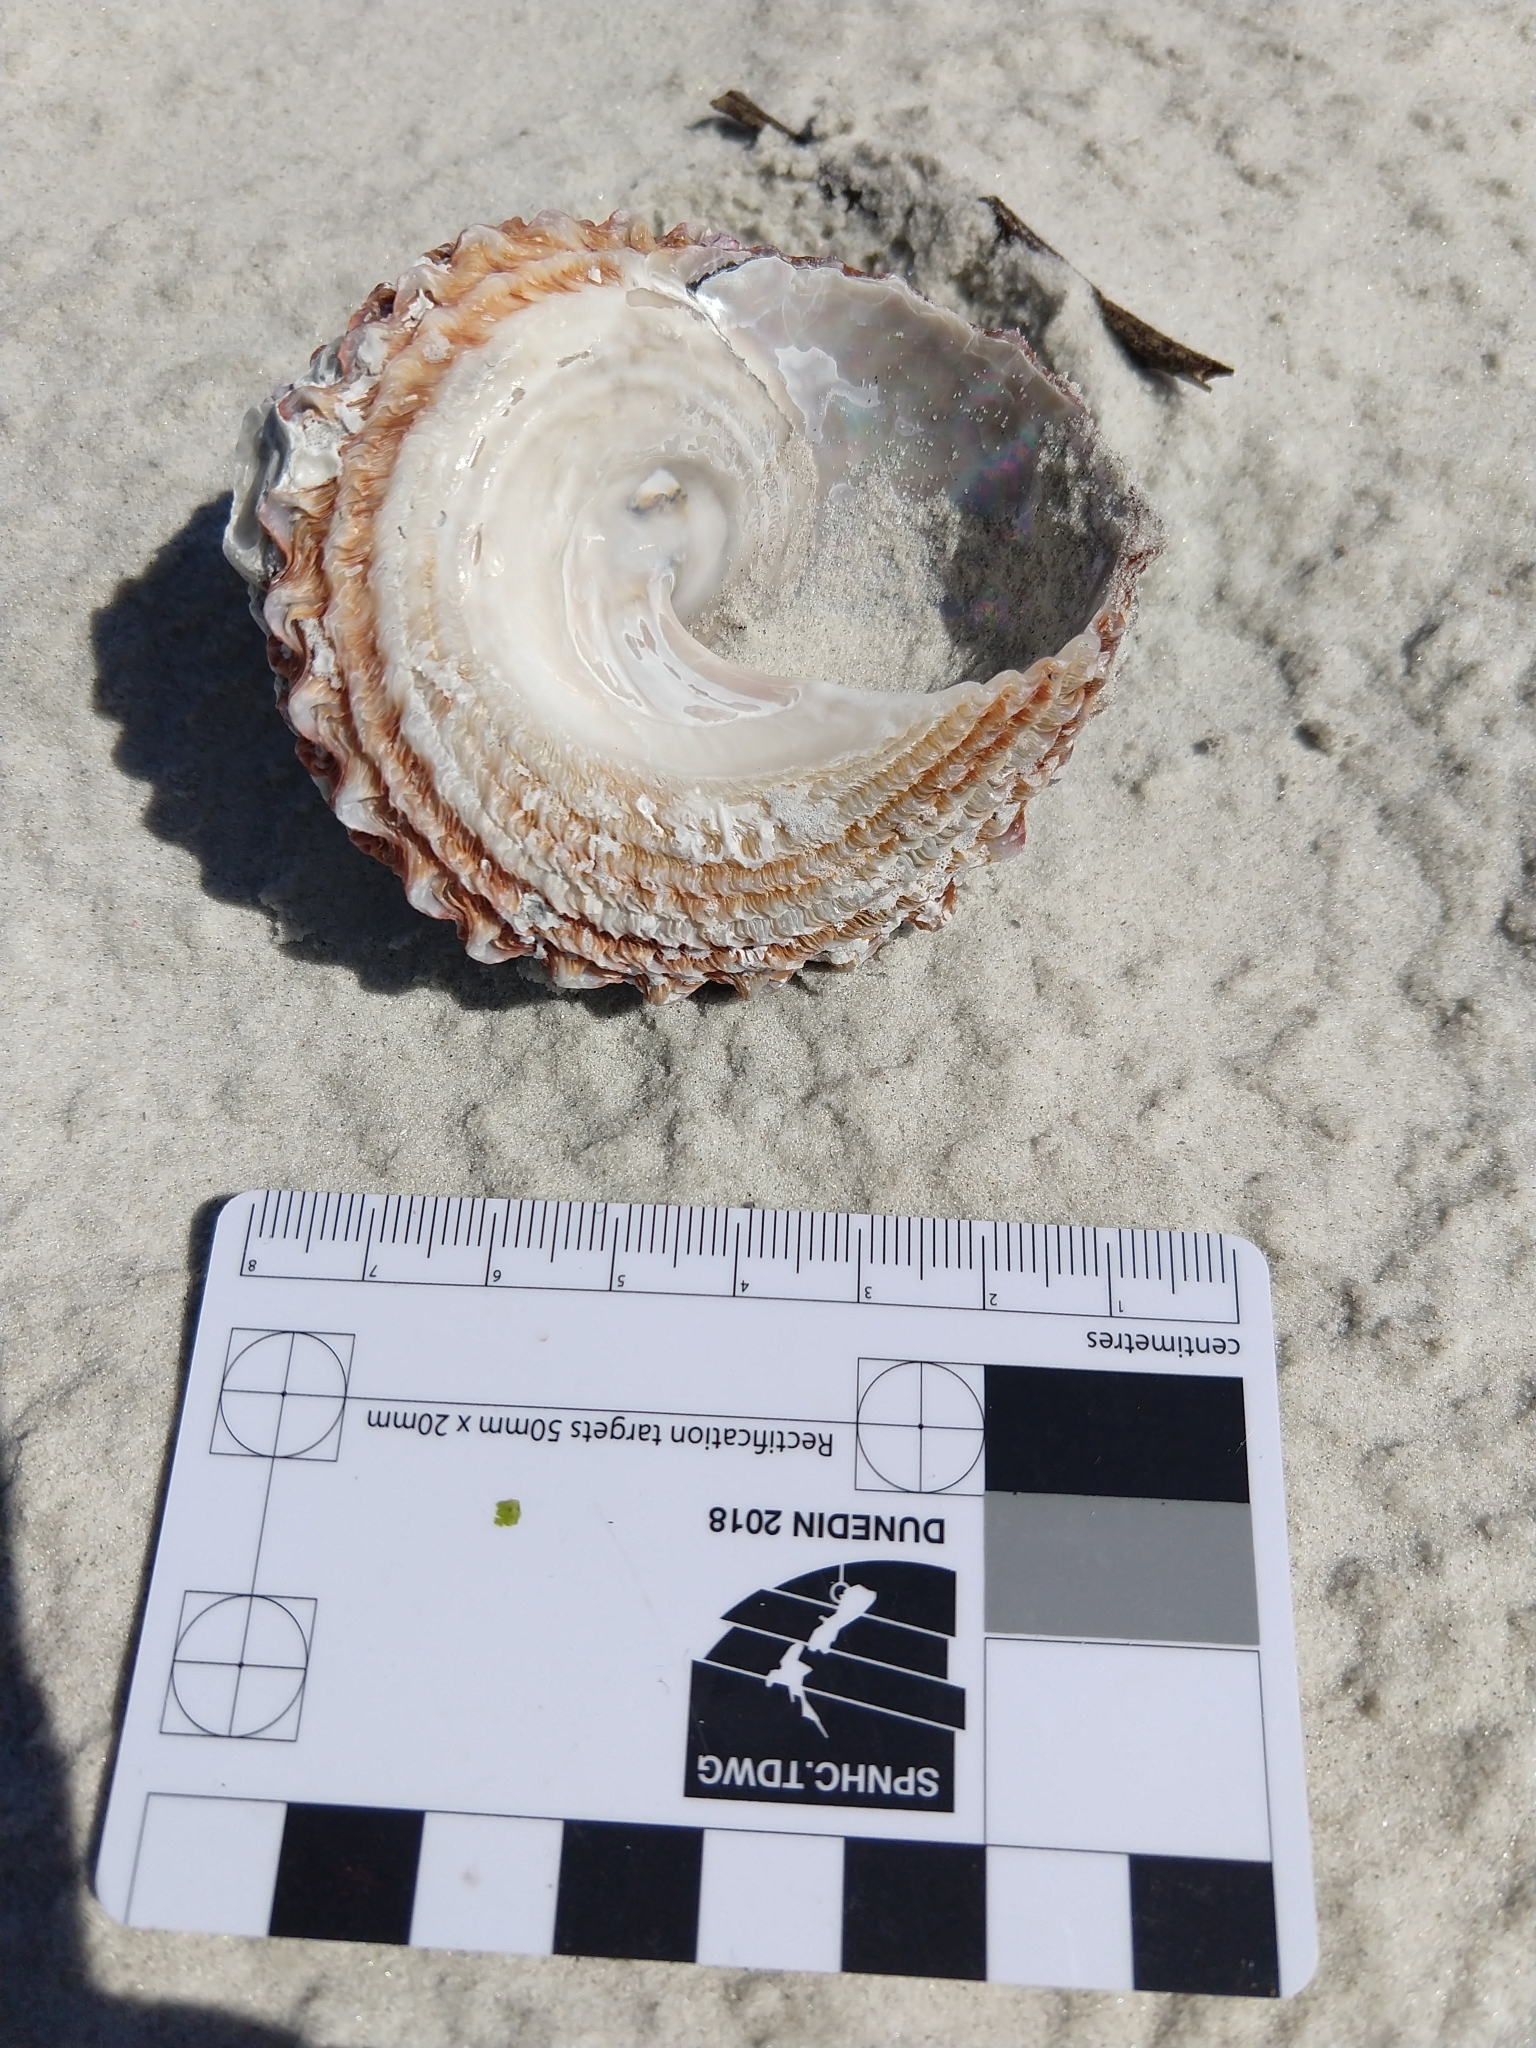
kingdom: Animalia
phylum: Mollusca
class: Gastropoda
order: Trochida
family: Turbinidae
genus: Cookia
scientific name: Cookia sulcata
